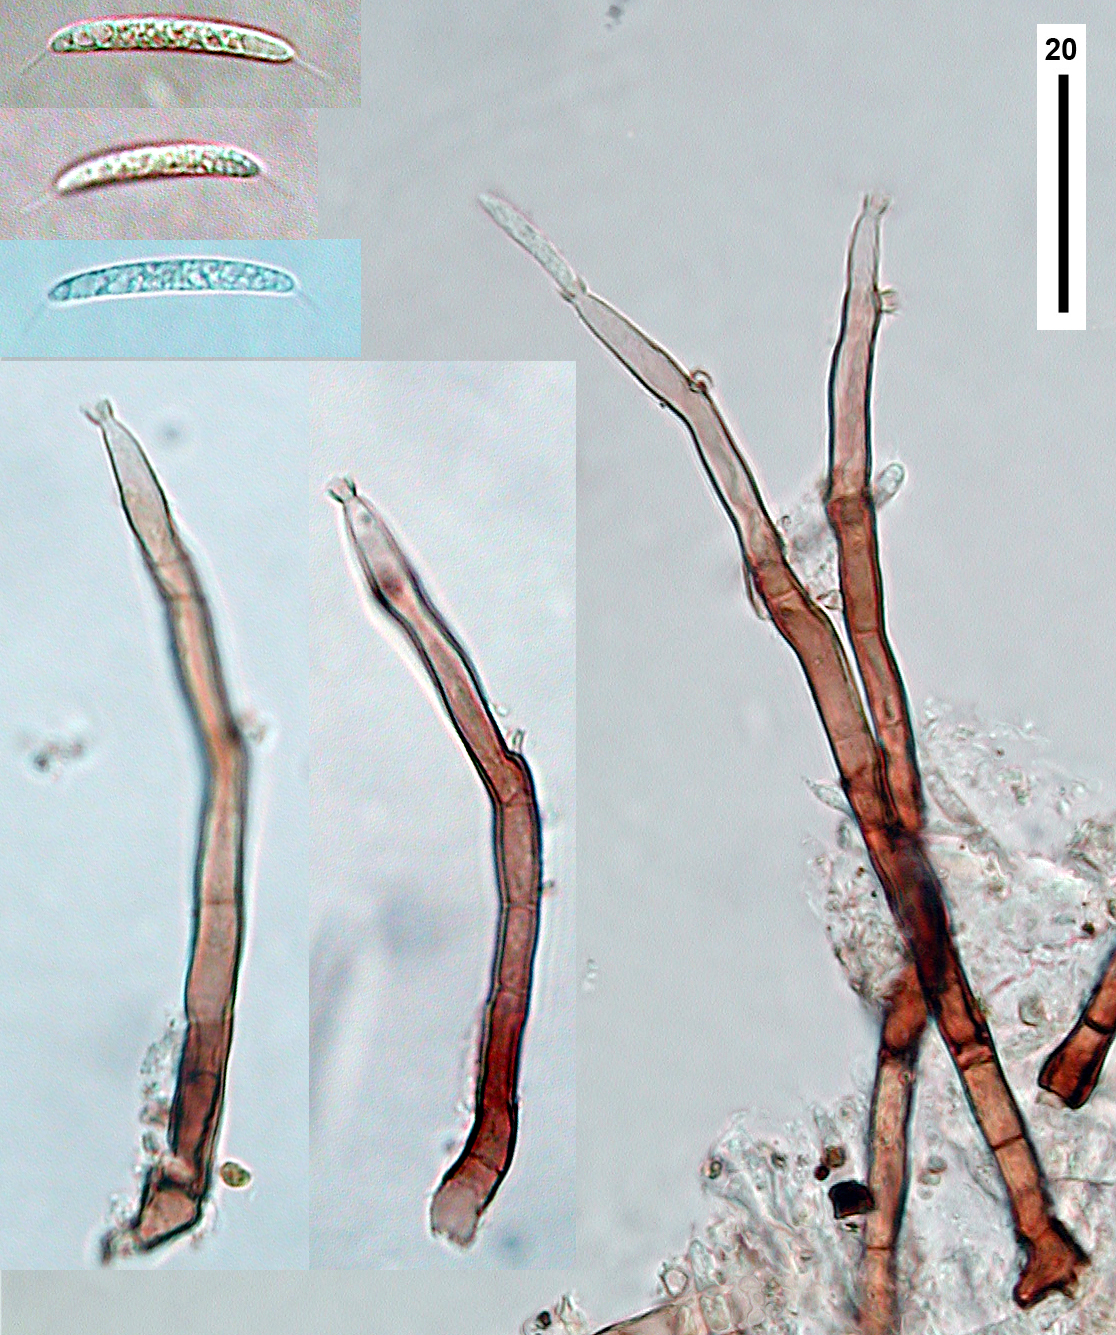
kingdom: Fungi
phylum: Ascomycota
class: Sordariomycetes
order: Chaetosphaeriales
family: Chaetosphaeriaceae
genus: Tainosphaeria
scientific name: Tainosphaeria vulgaris
